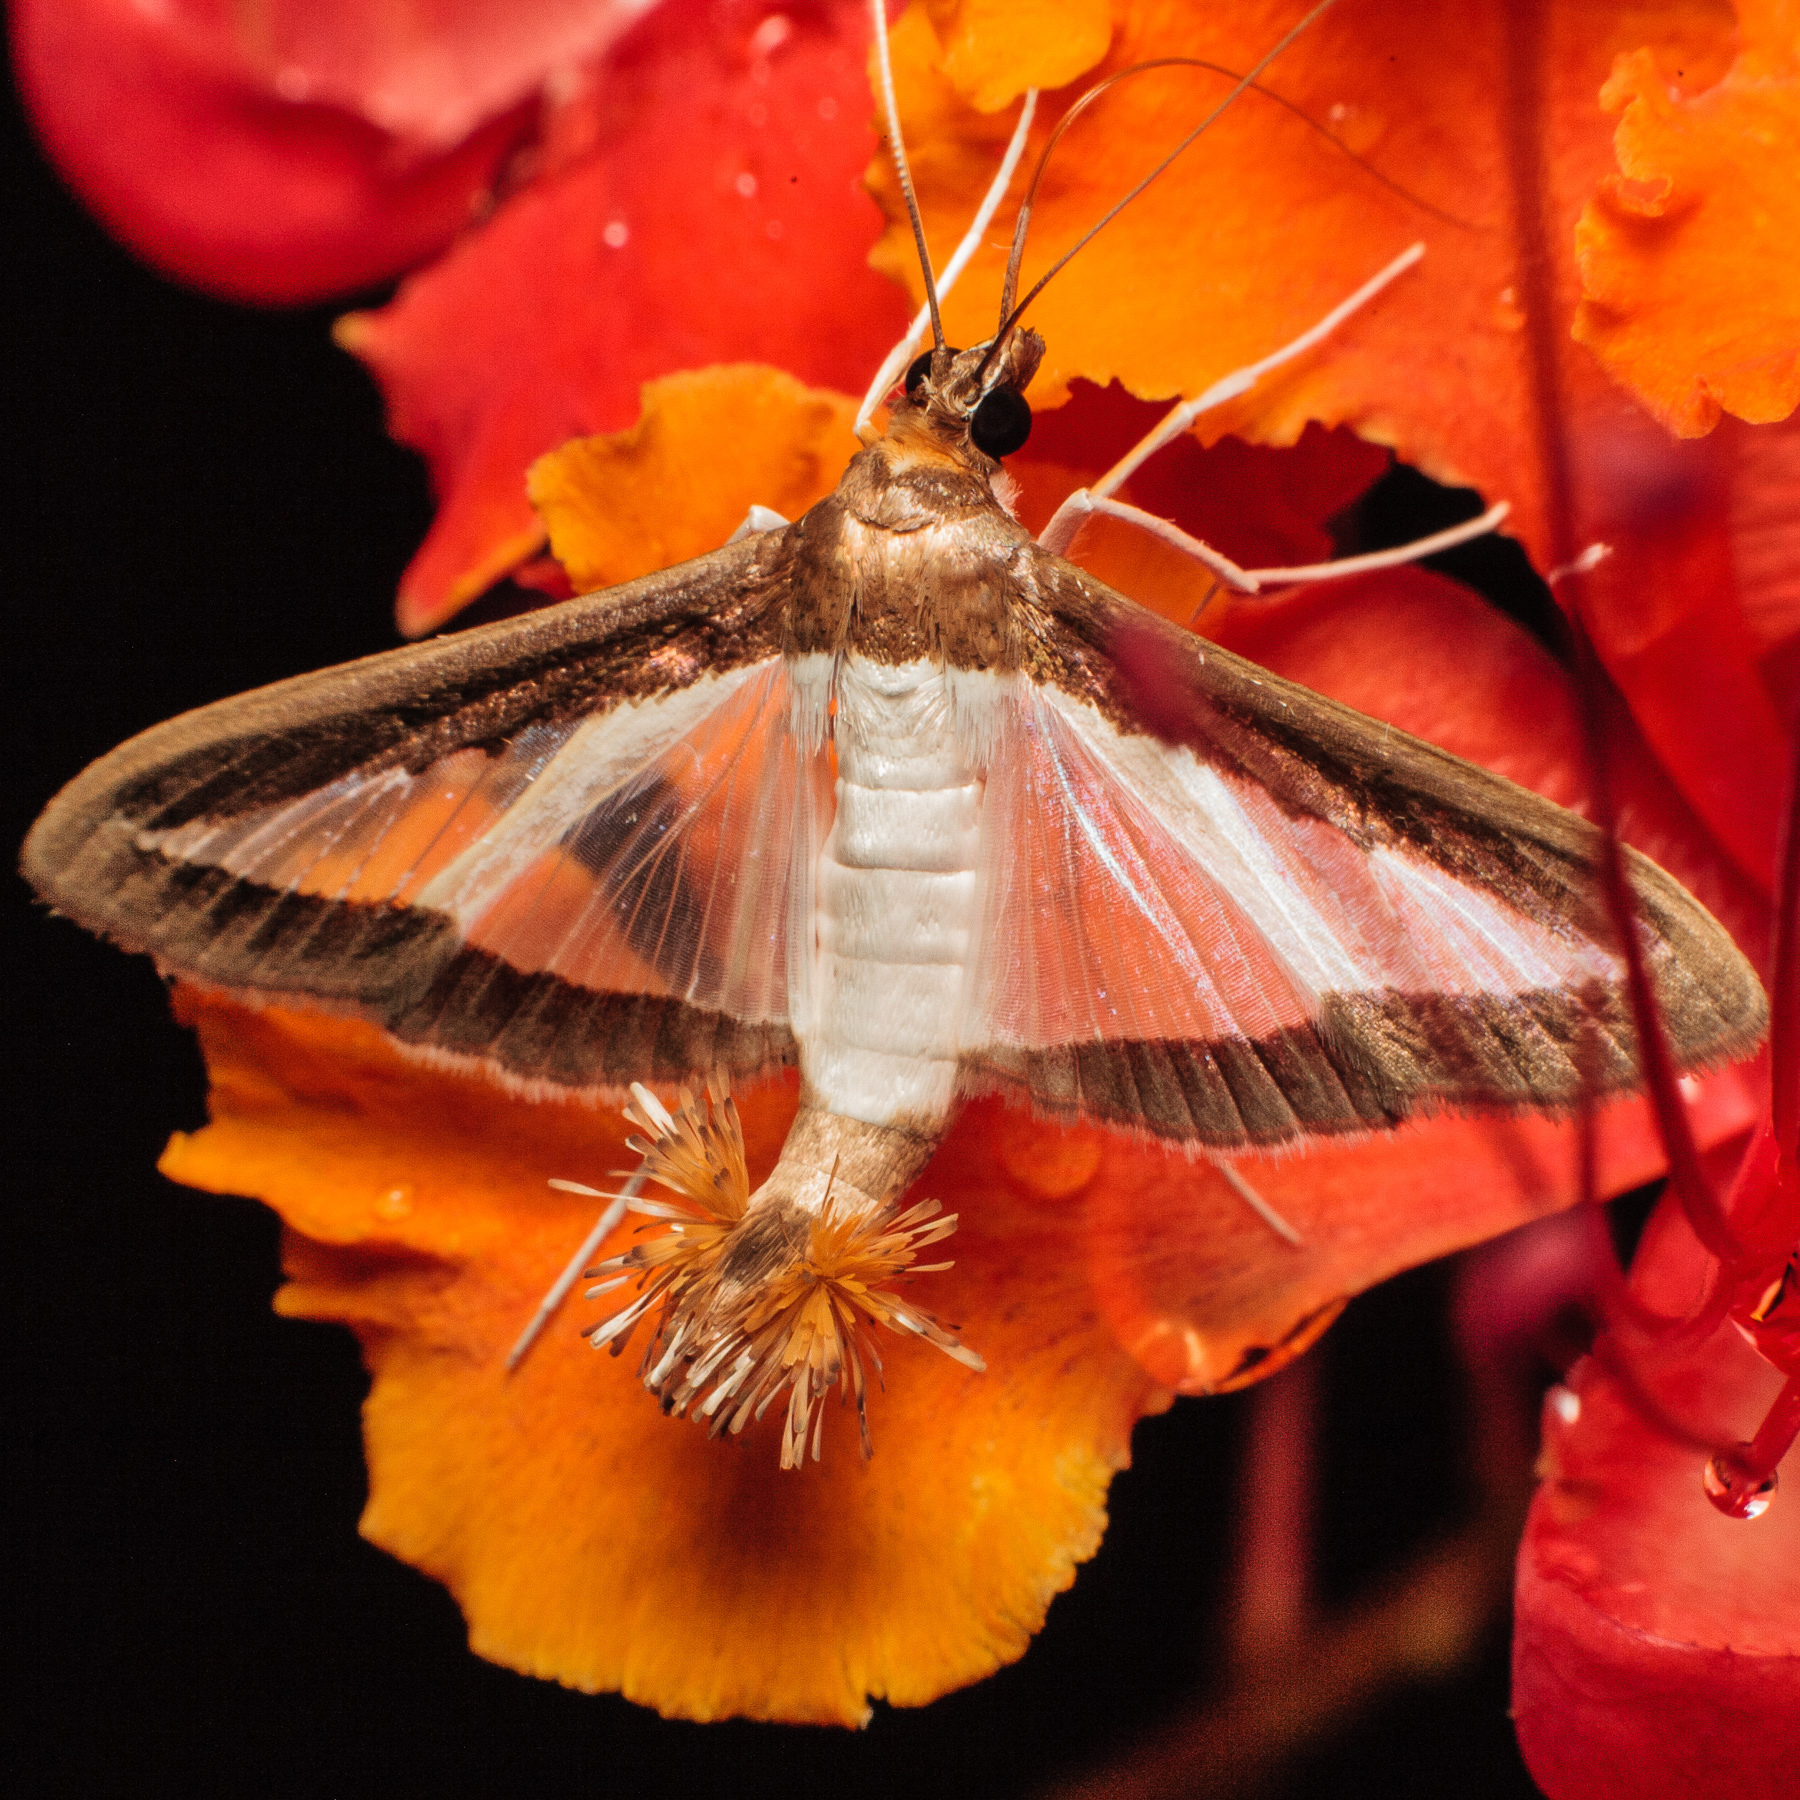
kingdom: Animalia
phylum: Arthropoda
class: Insecta
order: Lepidoptera
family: Crambidae
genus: Diaphania
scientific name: Diaphania hyalinata
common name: Melonworm
